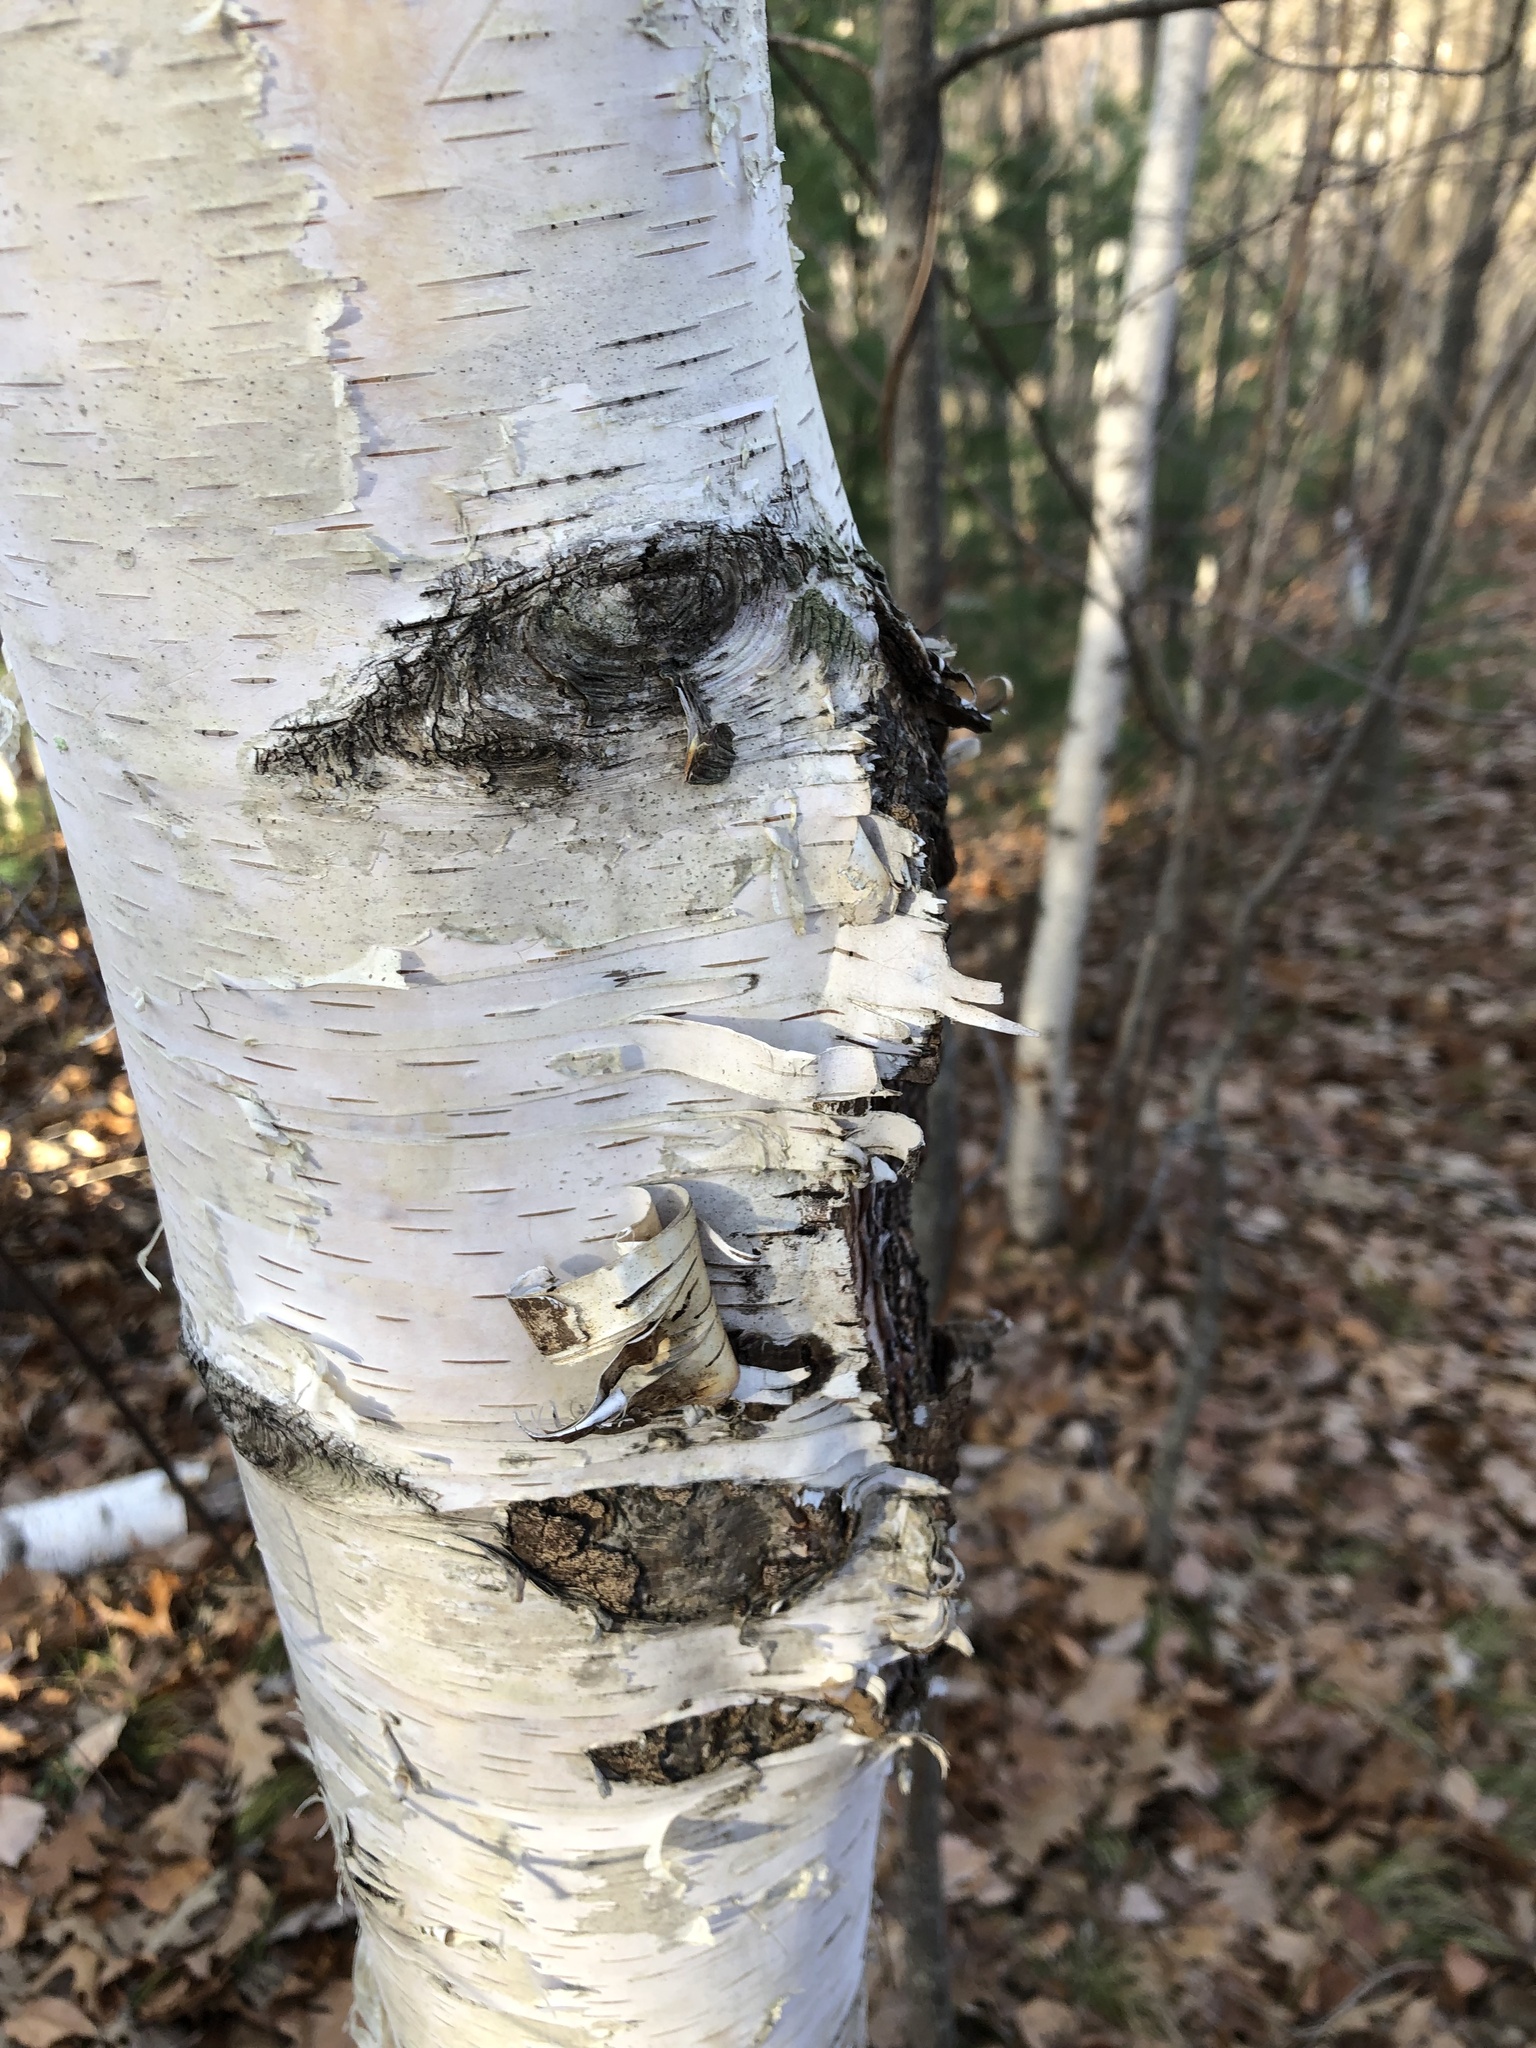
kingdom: Plantae
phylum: Tracheophyta
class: Magnoliopsida
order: Fagales
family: Betulaceae
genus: Betula
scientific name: Betula papyrifera
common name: Paper birch
